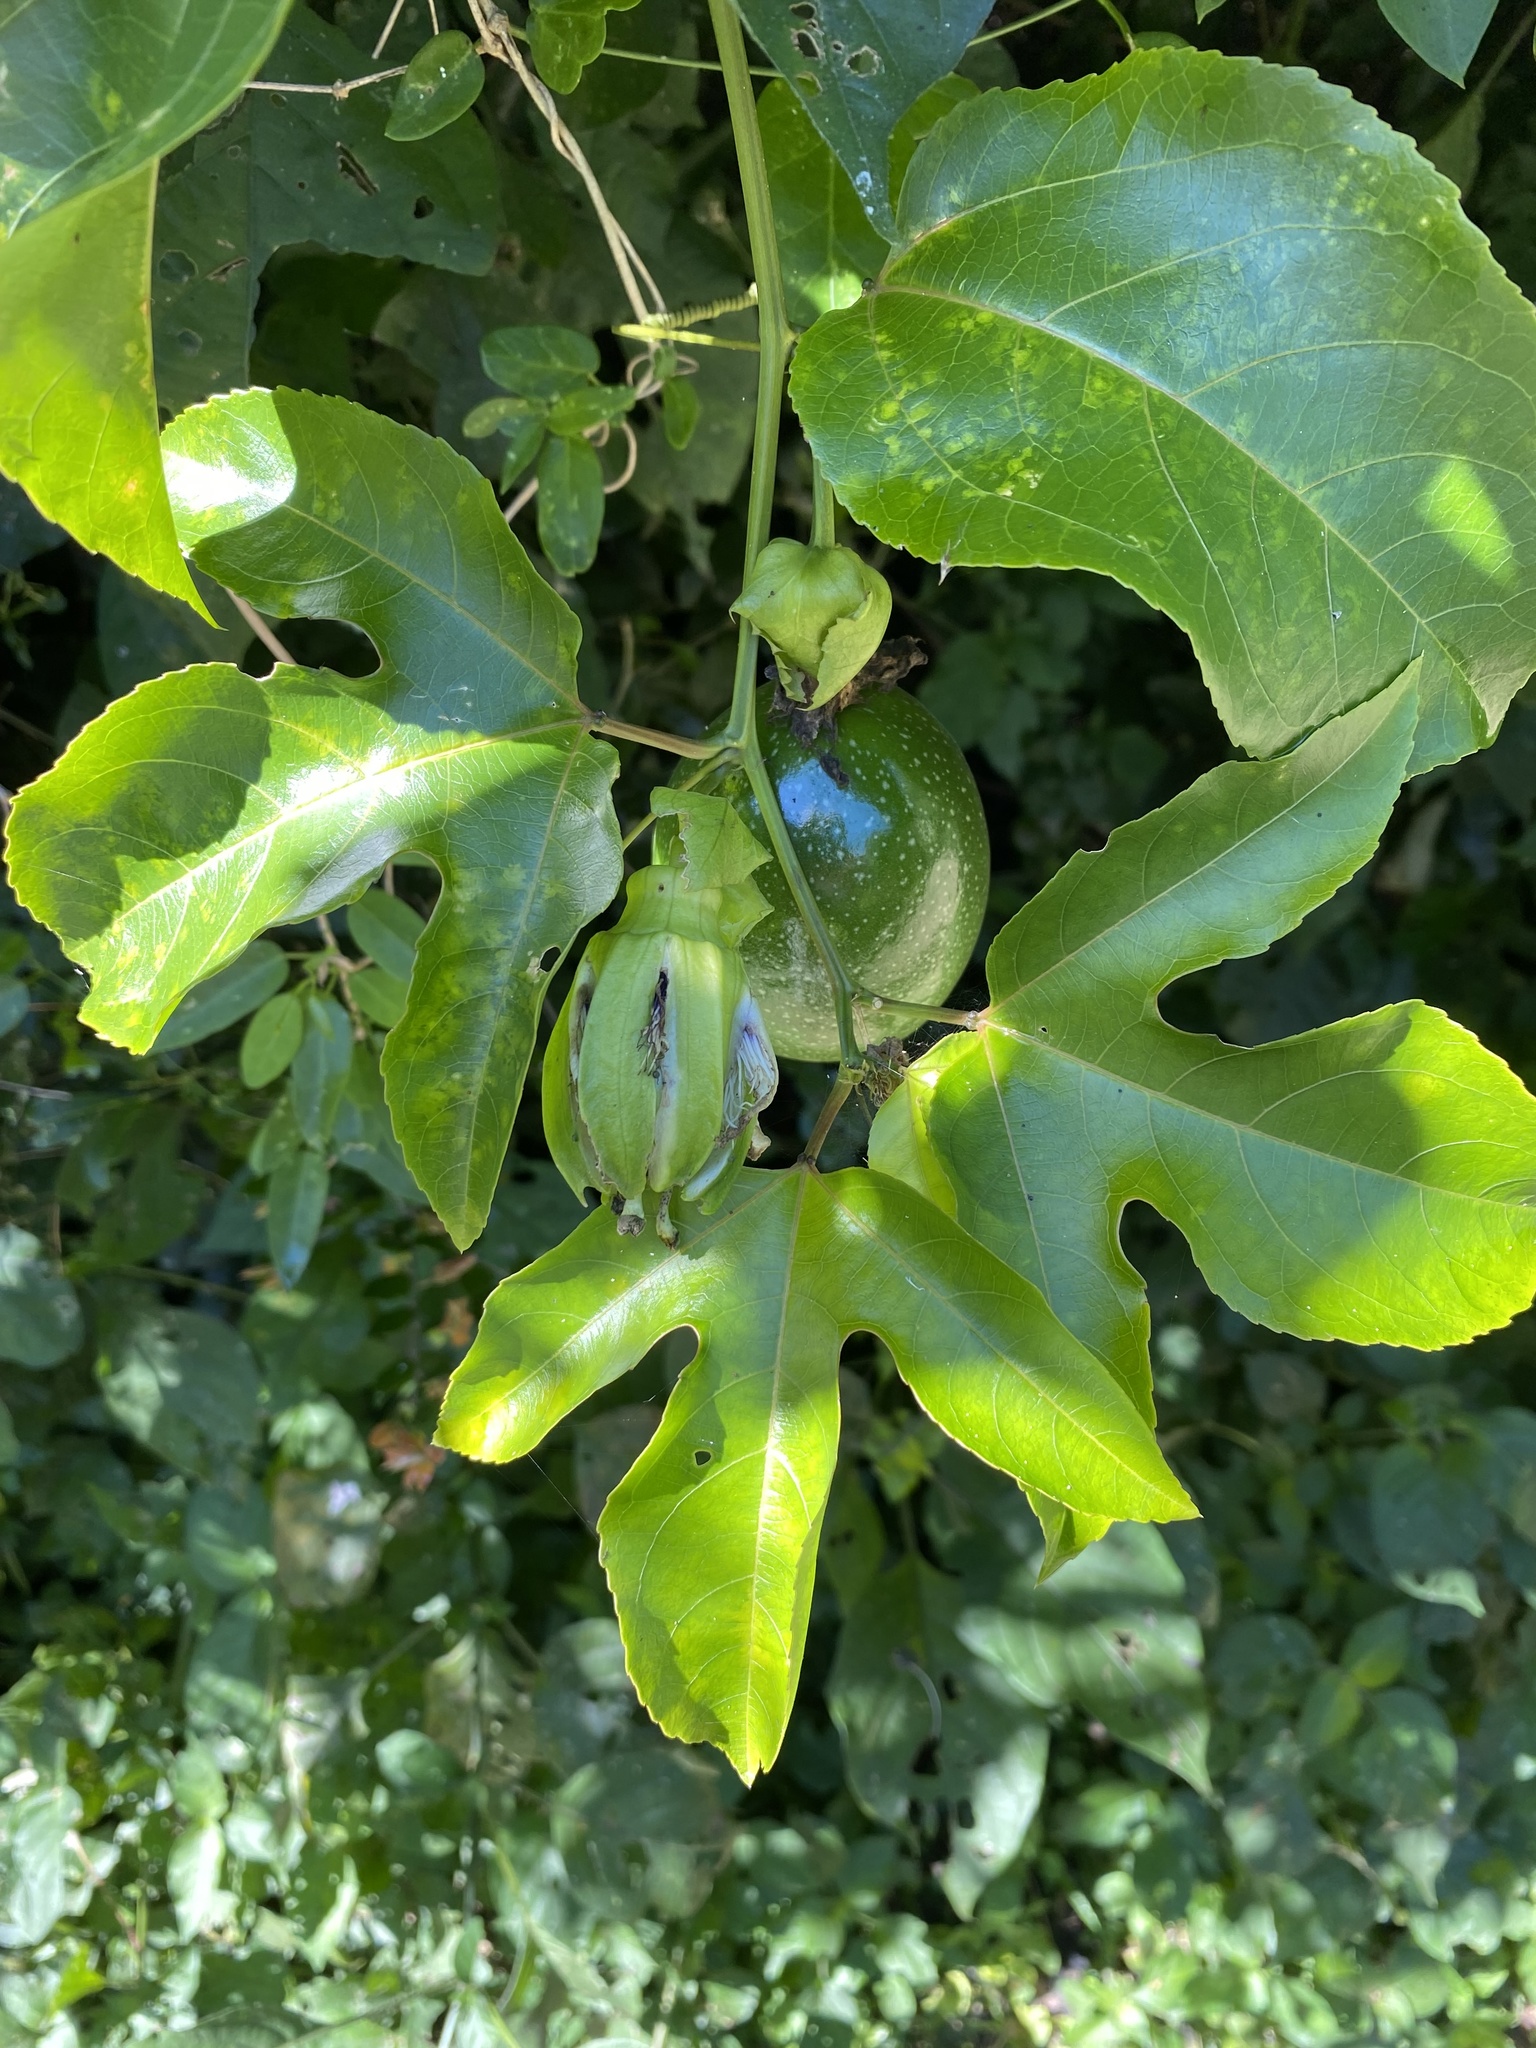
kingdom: Plantae
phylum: Tracheophyta
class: Magnoliopsida
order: Malpighiales
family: Passifloraceae
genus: Passiflora
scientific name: Passiflora edulis
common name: Purple granadilla
